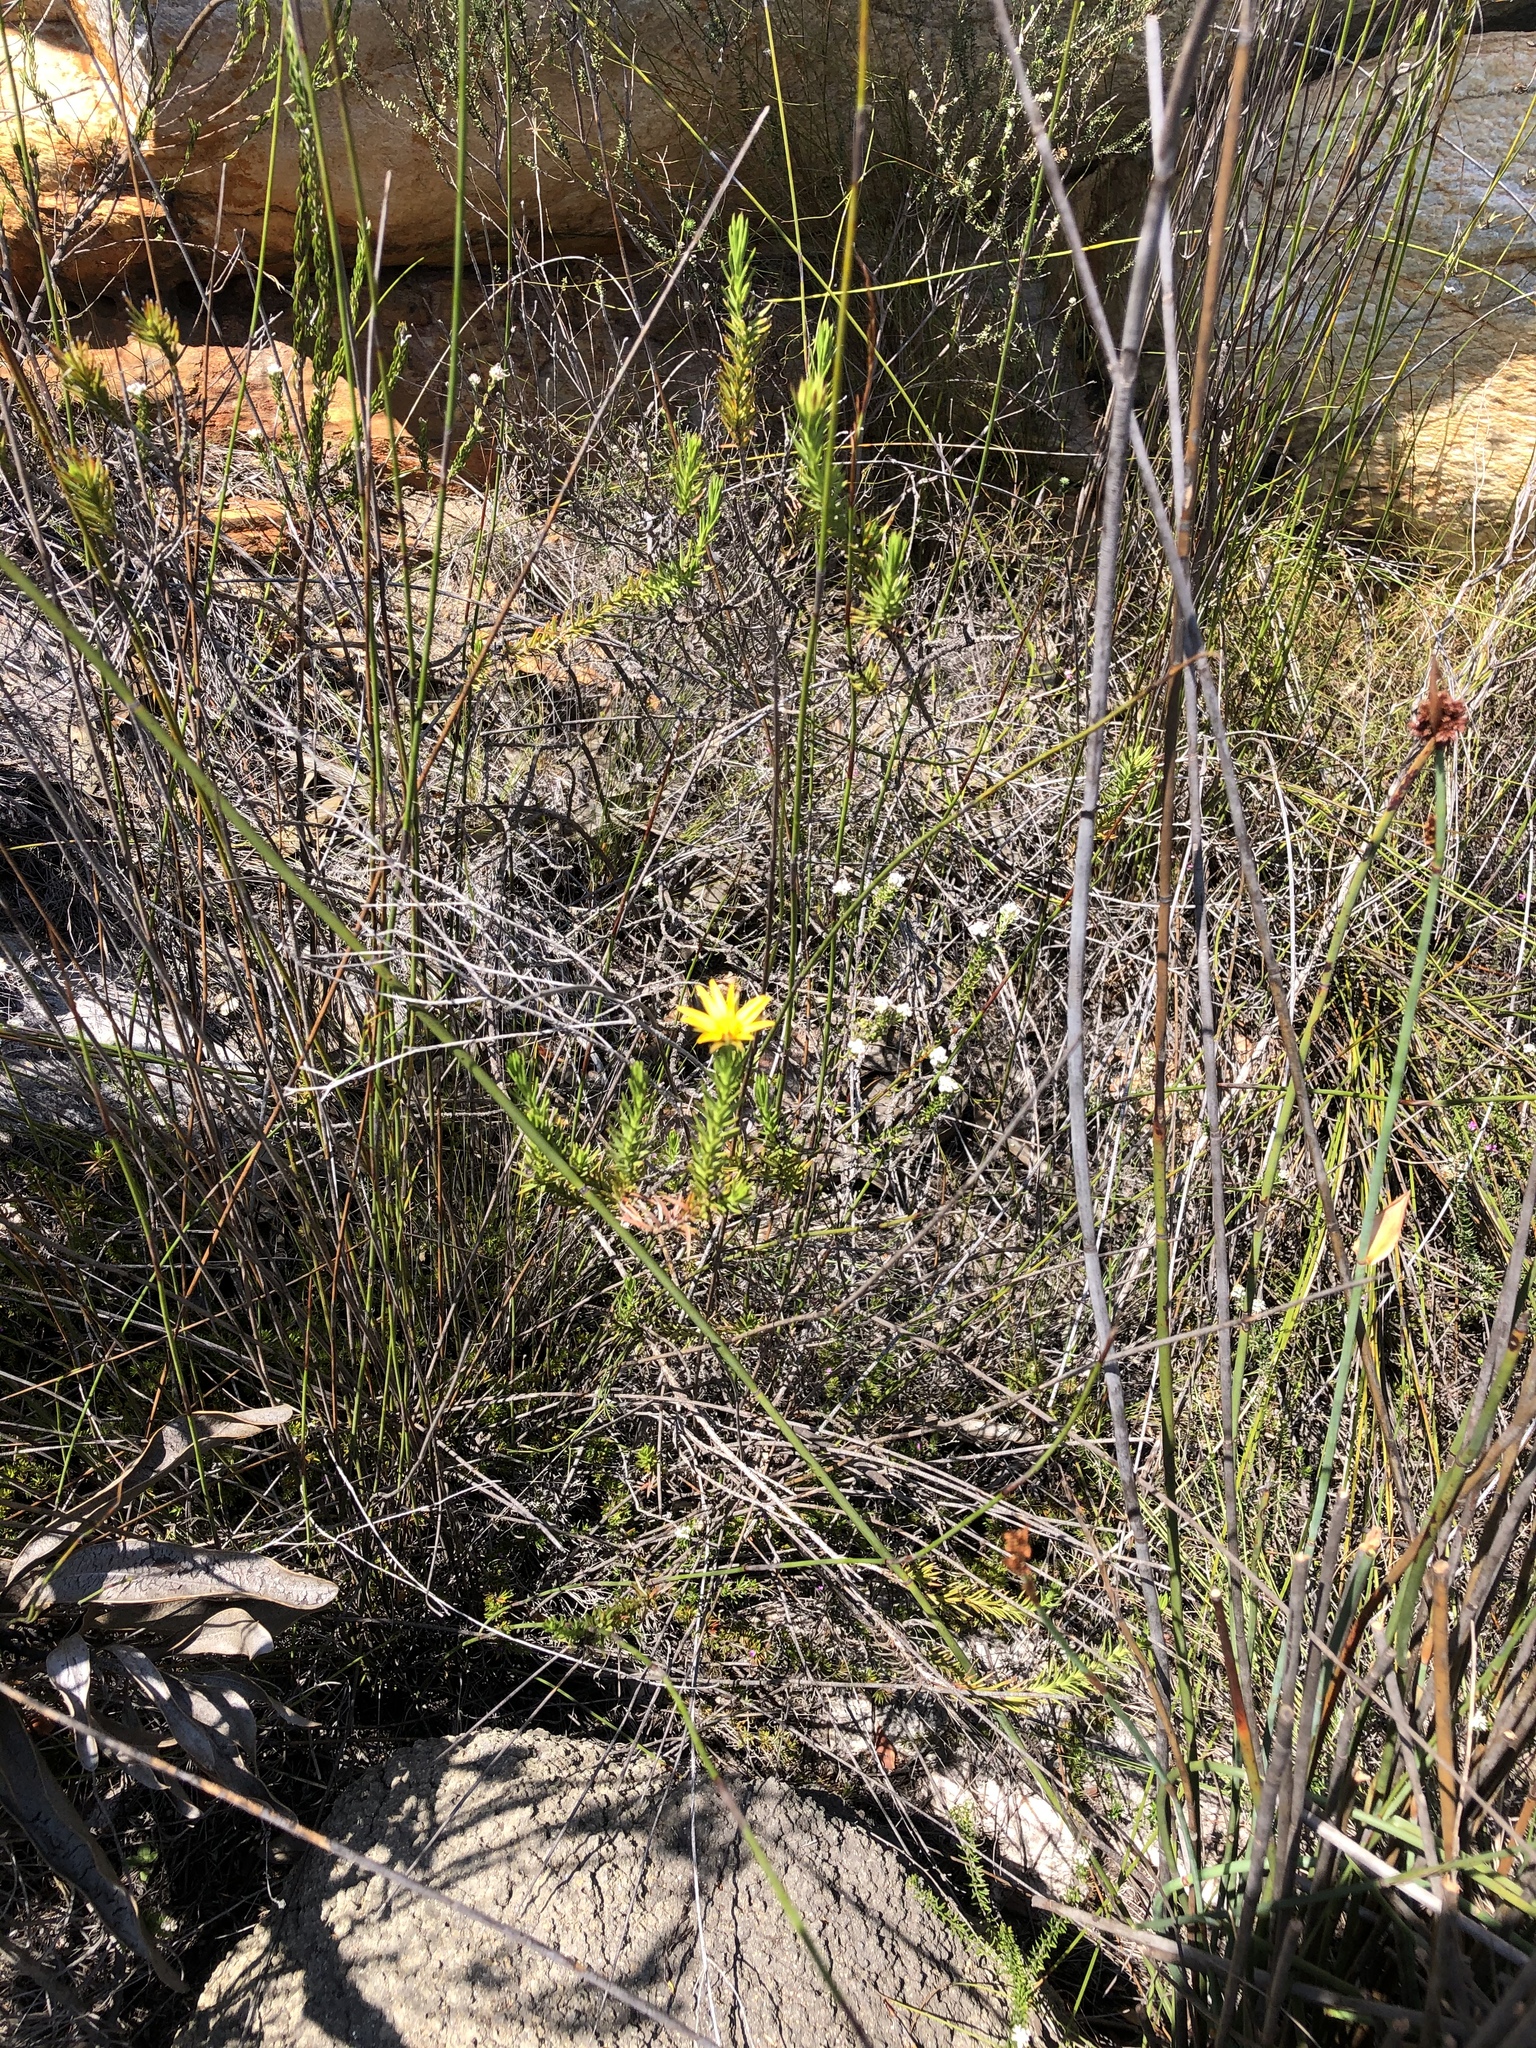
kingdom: Plantae
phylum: Tracheophyta
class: Magnoliopsida
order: Asterales
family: Asteraceae
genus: Gibbaria
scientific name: Gibbaria glabra
